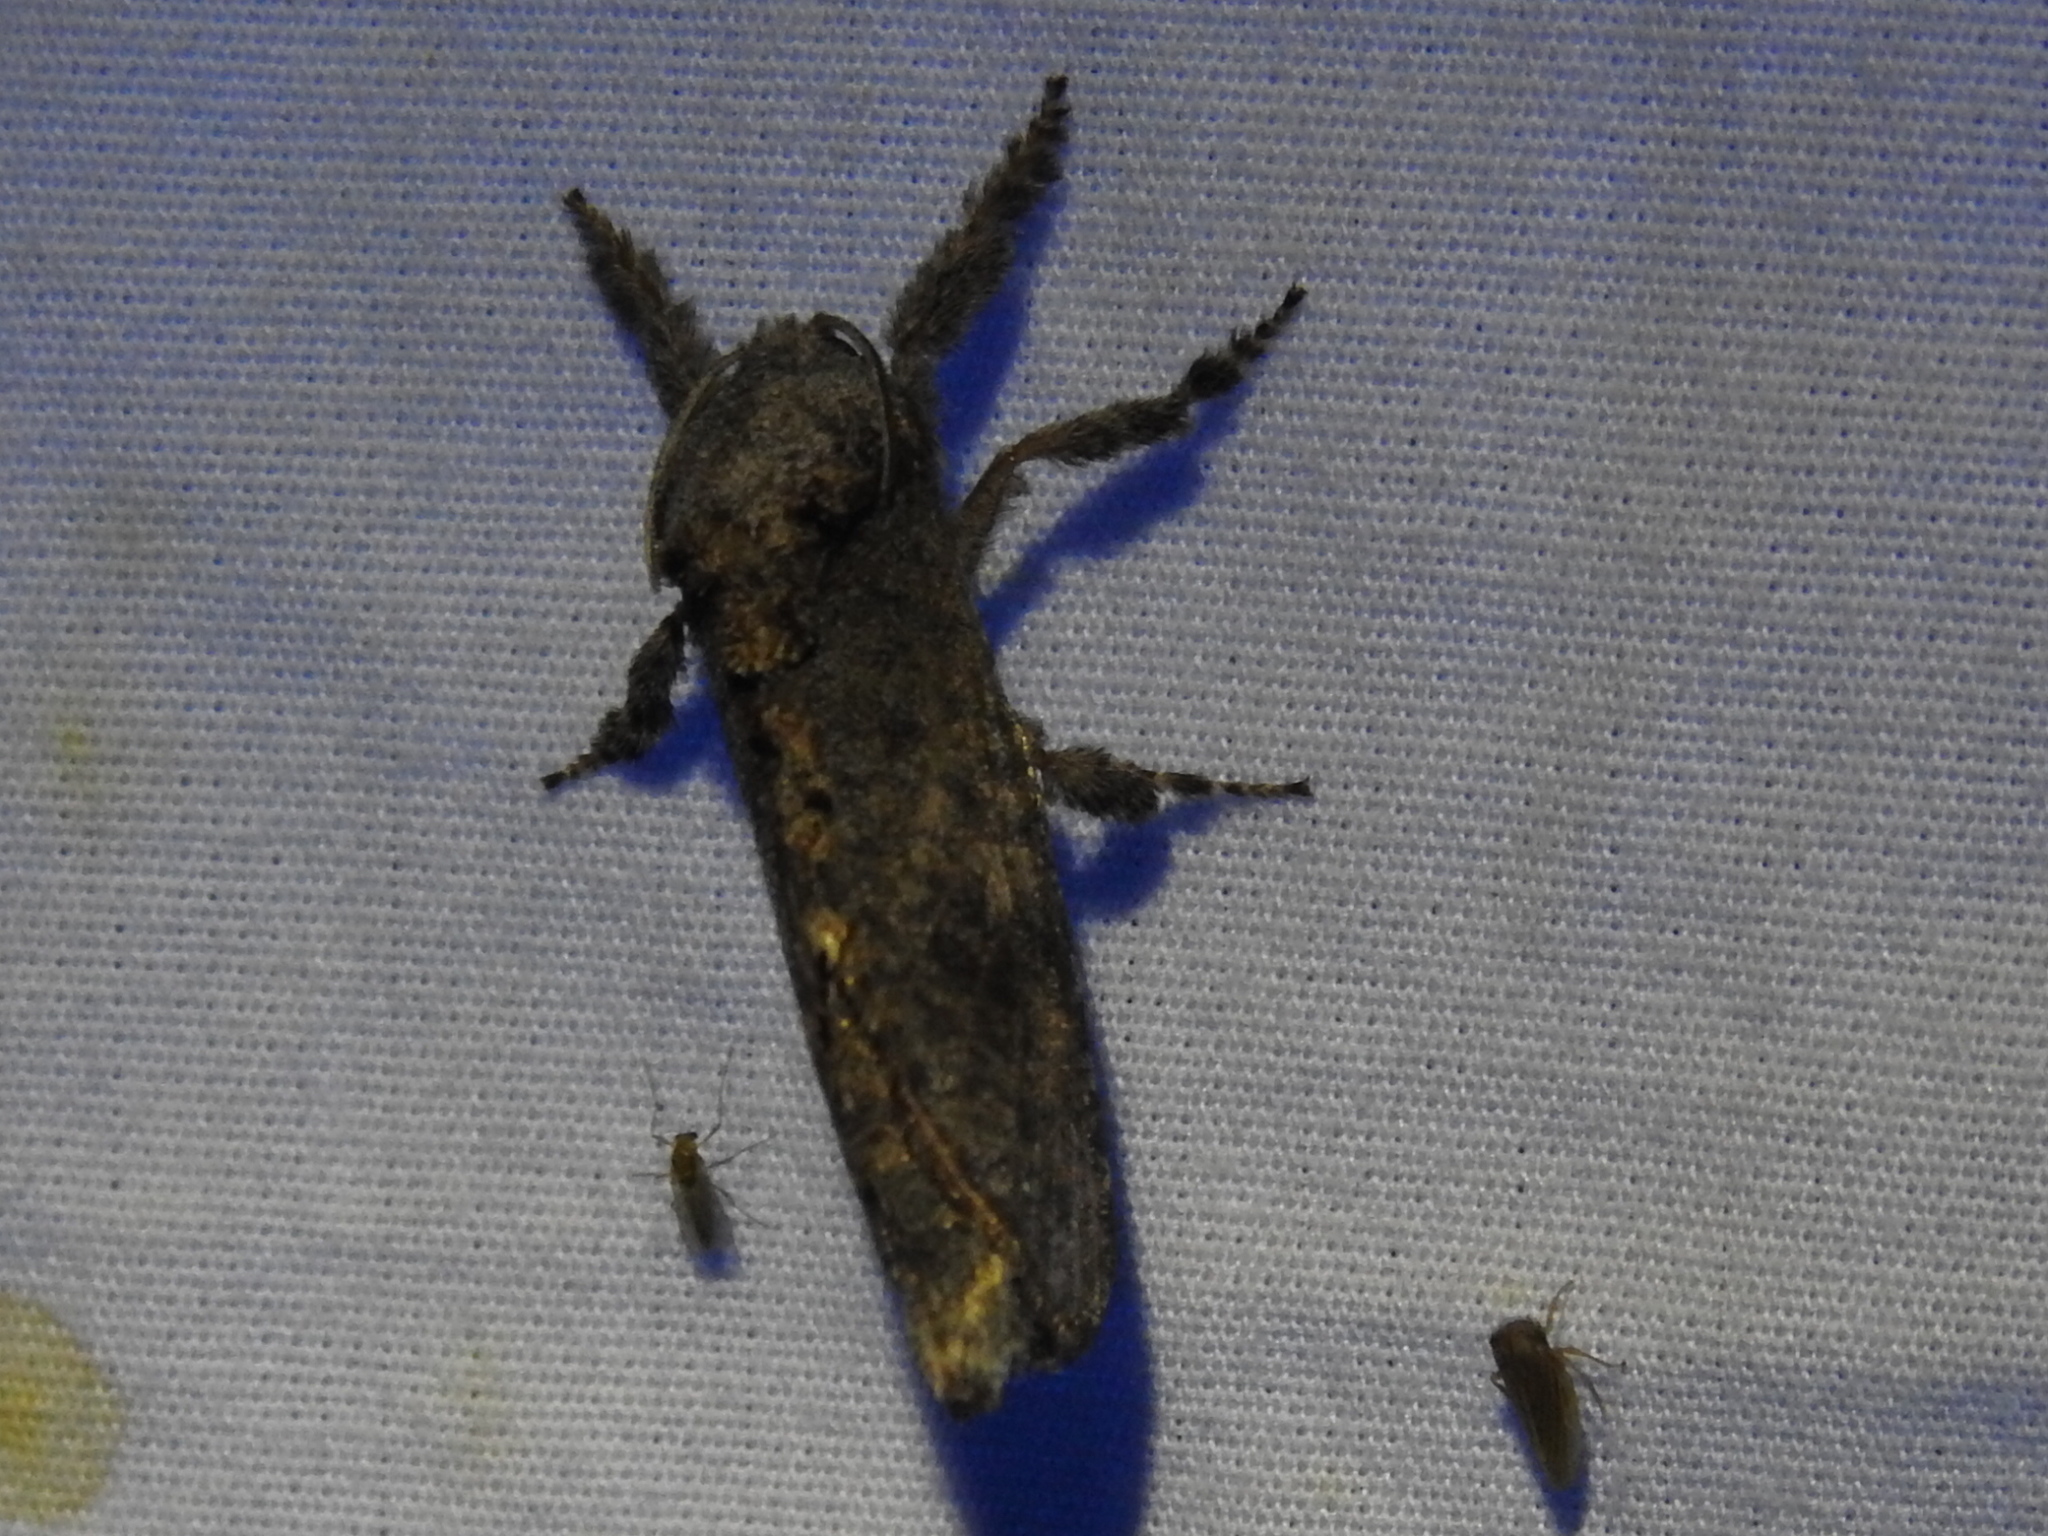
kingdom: Animalia
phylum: Arthropoda
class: Insecta
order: Lepidoptera
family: Cossidae
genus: Givira
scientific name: Givira arbeloides
